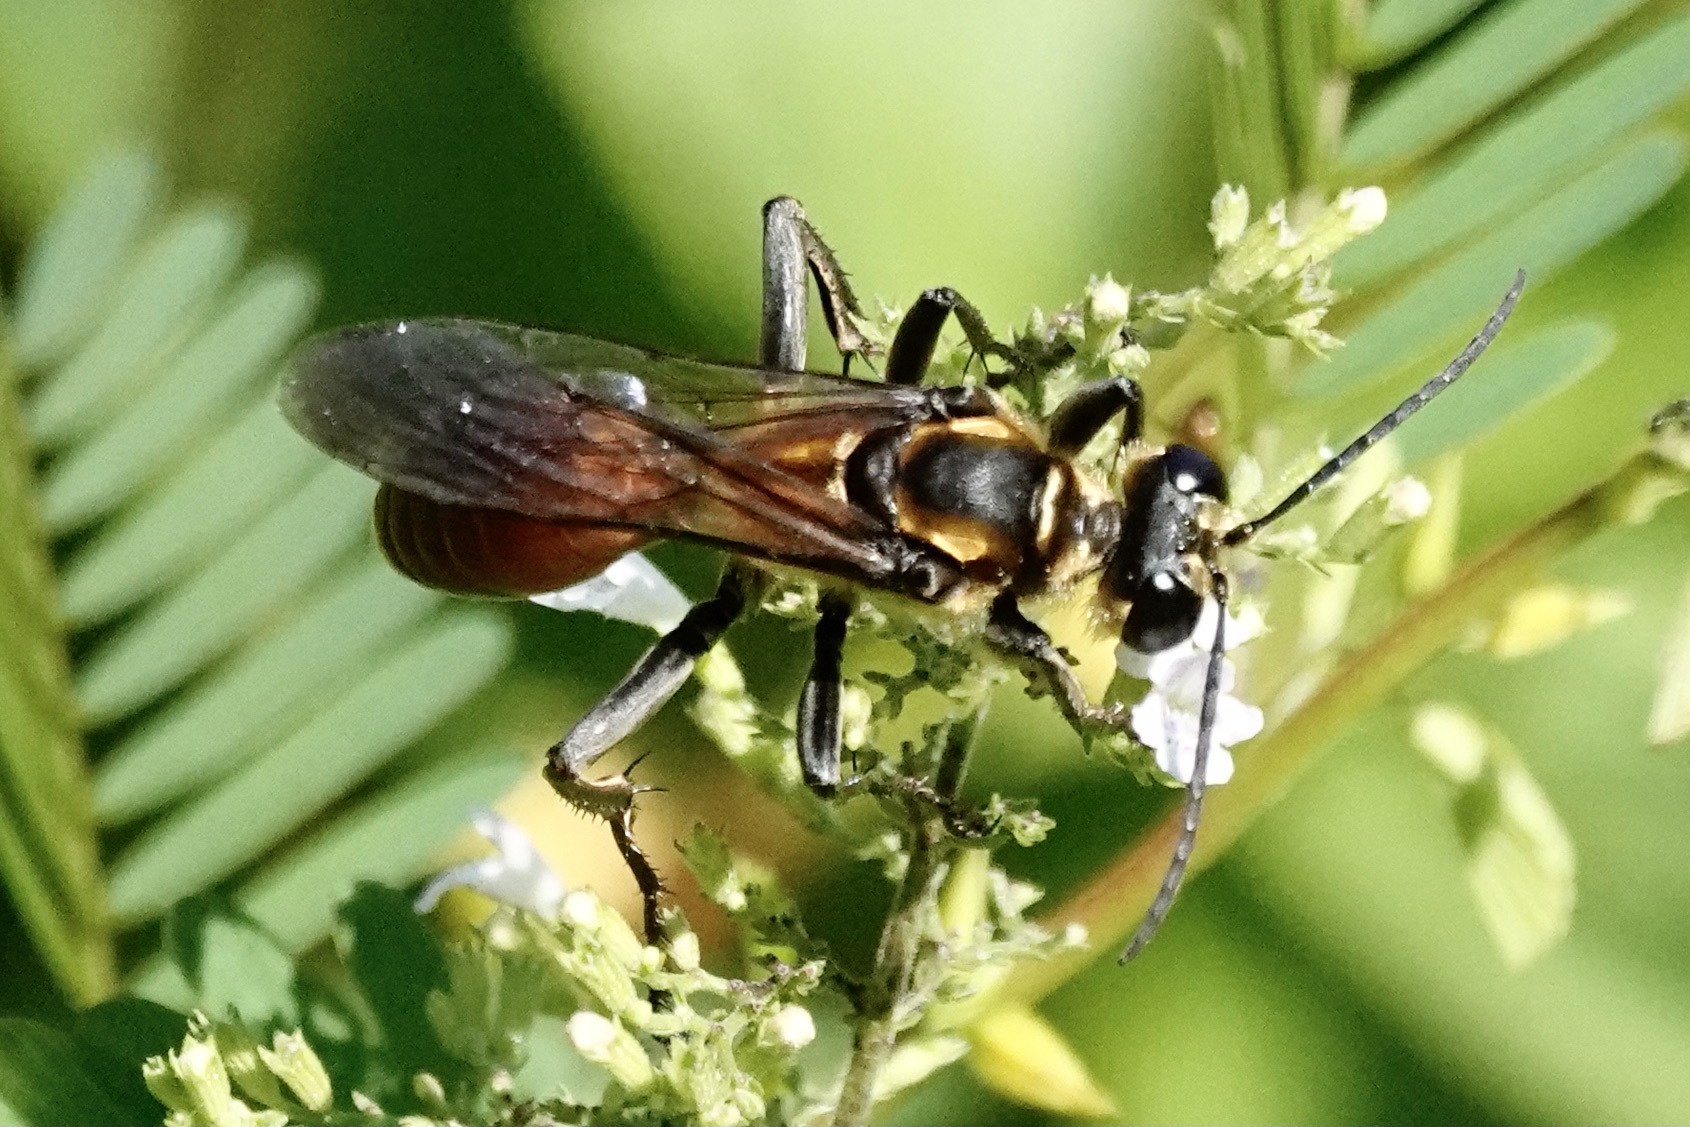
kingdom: Animalia
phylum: Arthropoda
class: Insecta
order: Hymenoptera
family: Sphecidae
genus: Sphex
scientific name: Sphex habenus
